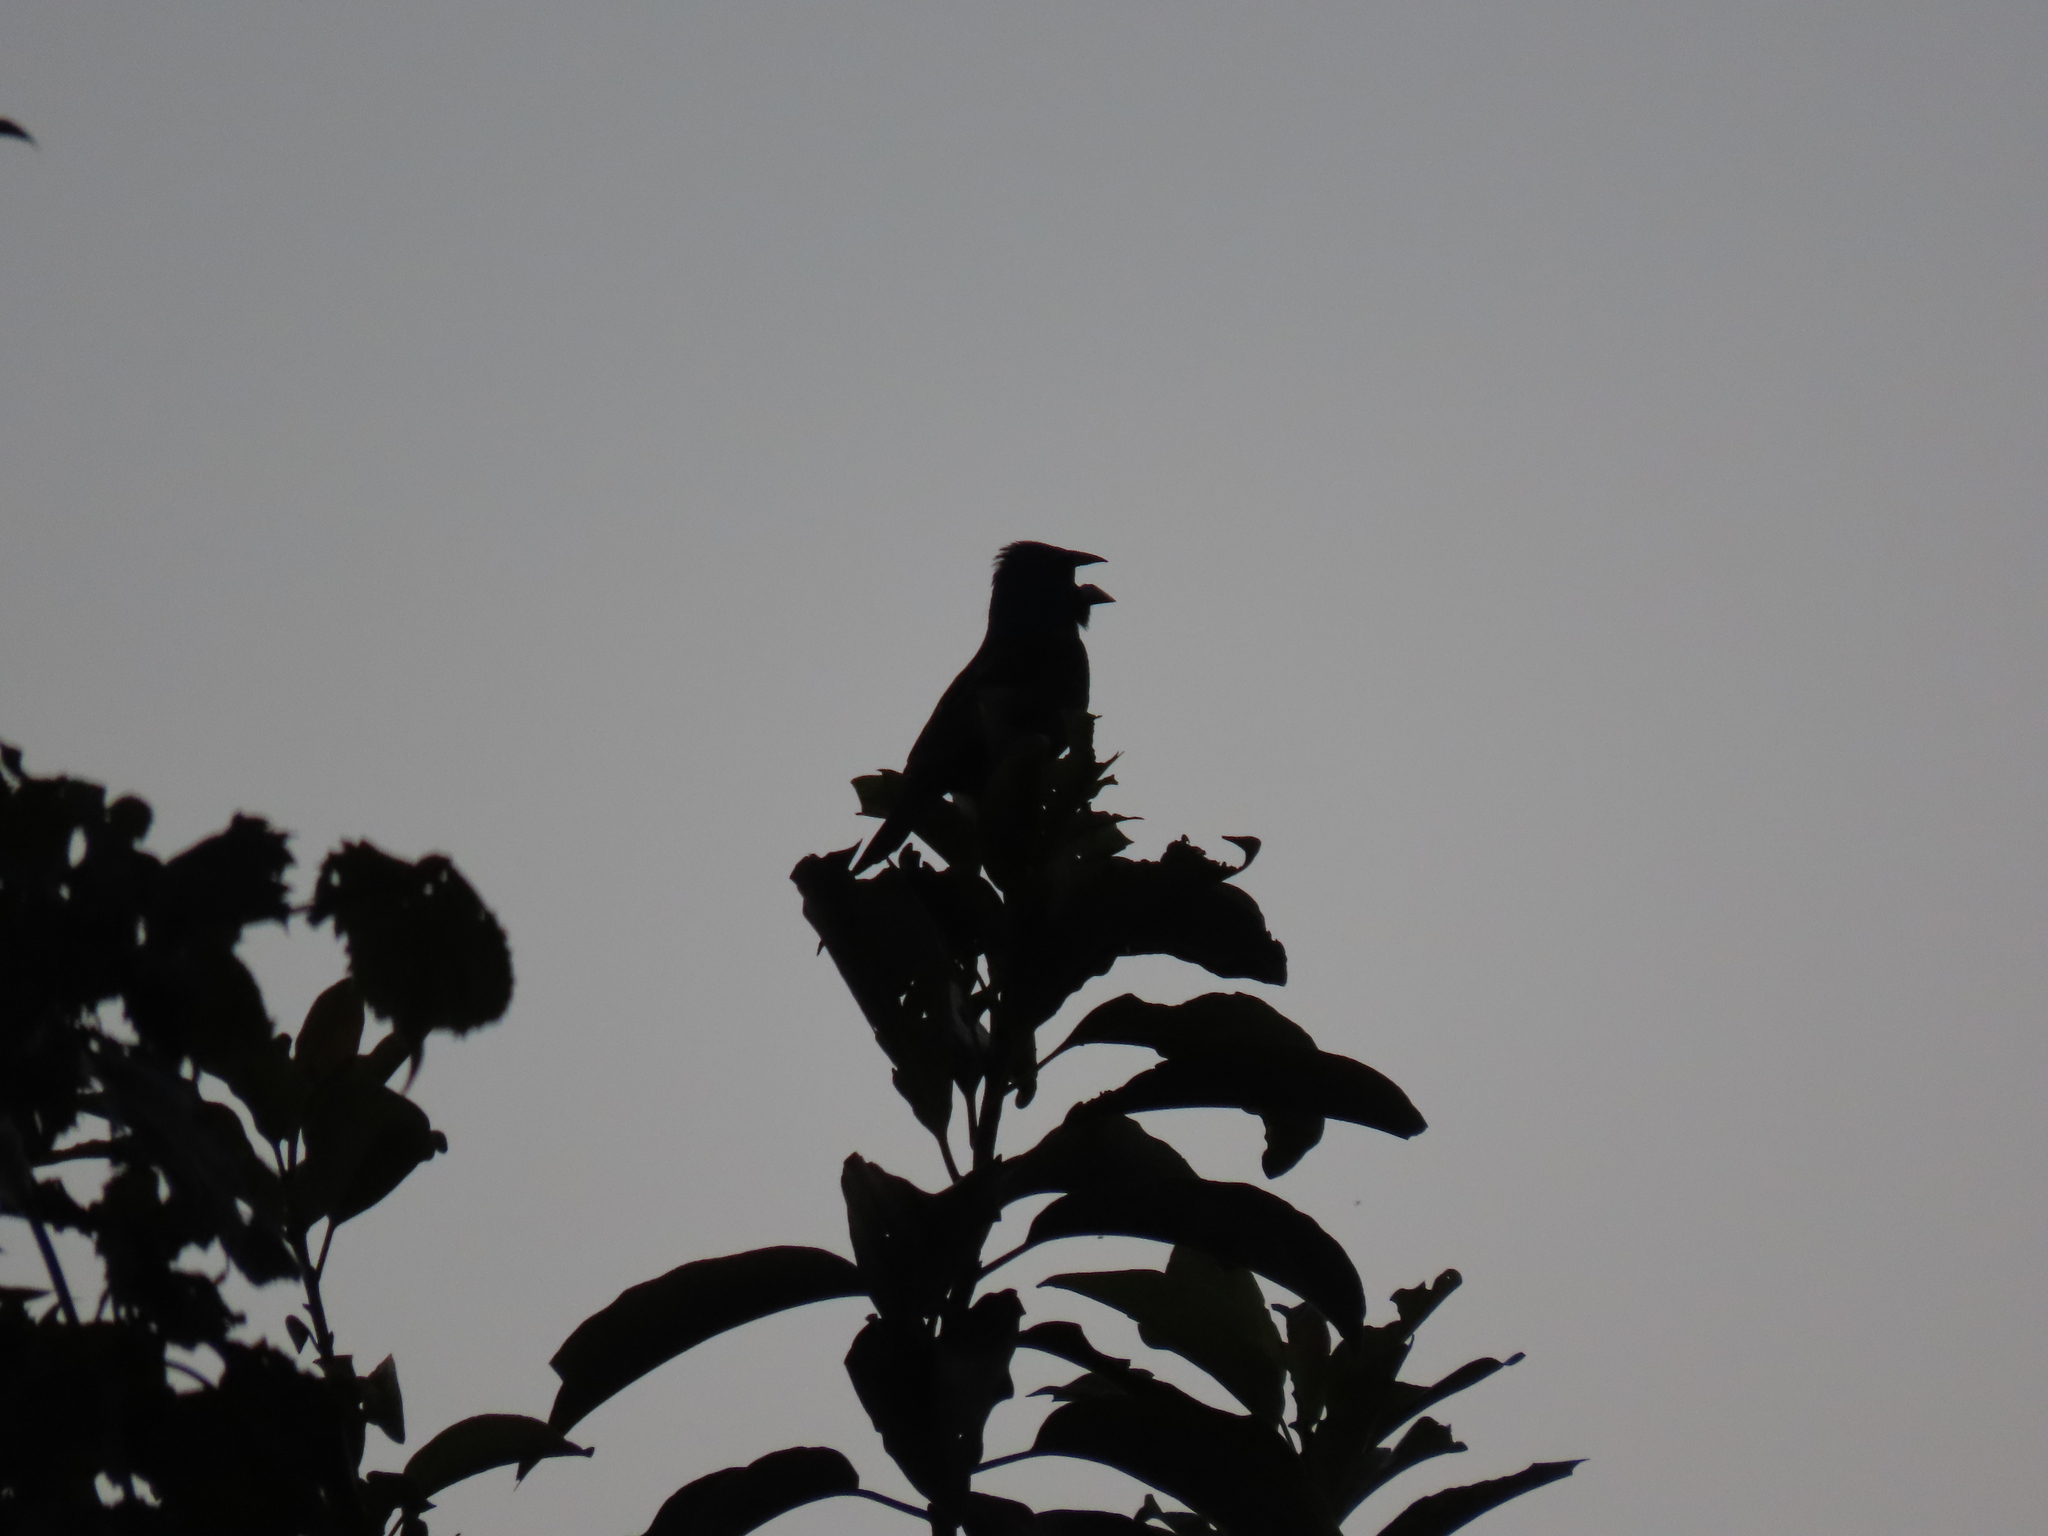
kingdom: Animalia
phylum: Chordata
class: Aves
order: Passeriformes
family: Cardinalidae
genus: Passerina
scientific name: Passerina caerulea
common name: Blue grosbeak
